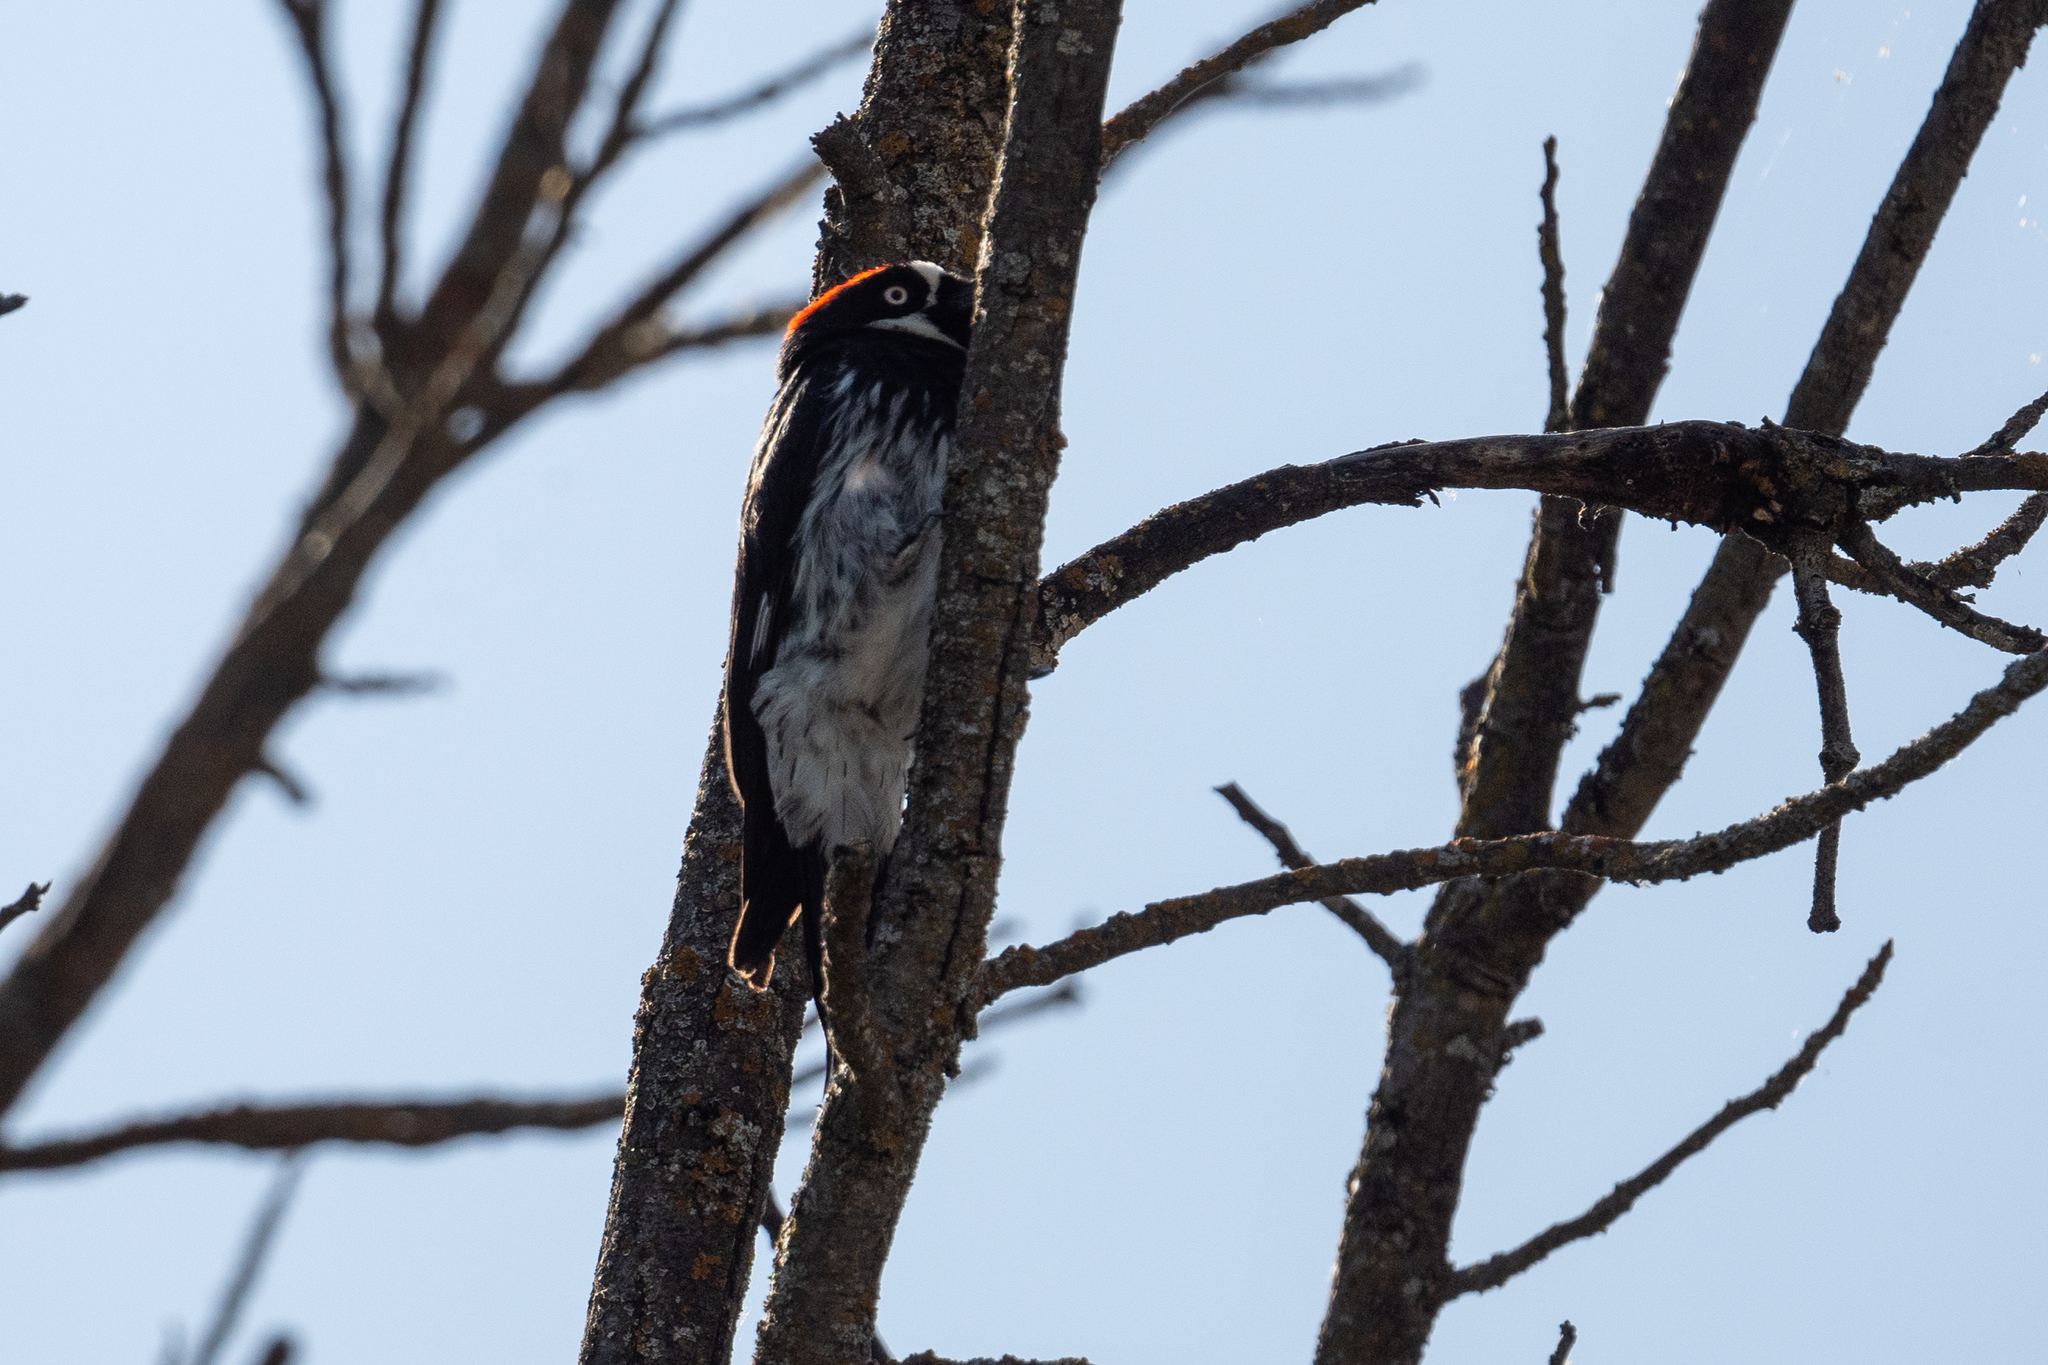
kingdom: Animalia
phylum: Chordata
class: Aves
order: Piciformes
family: Picidae
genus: Melanerpes
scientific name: Melanerpes formicivorus
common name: Acorn woodpecker
